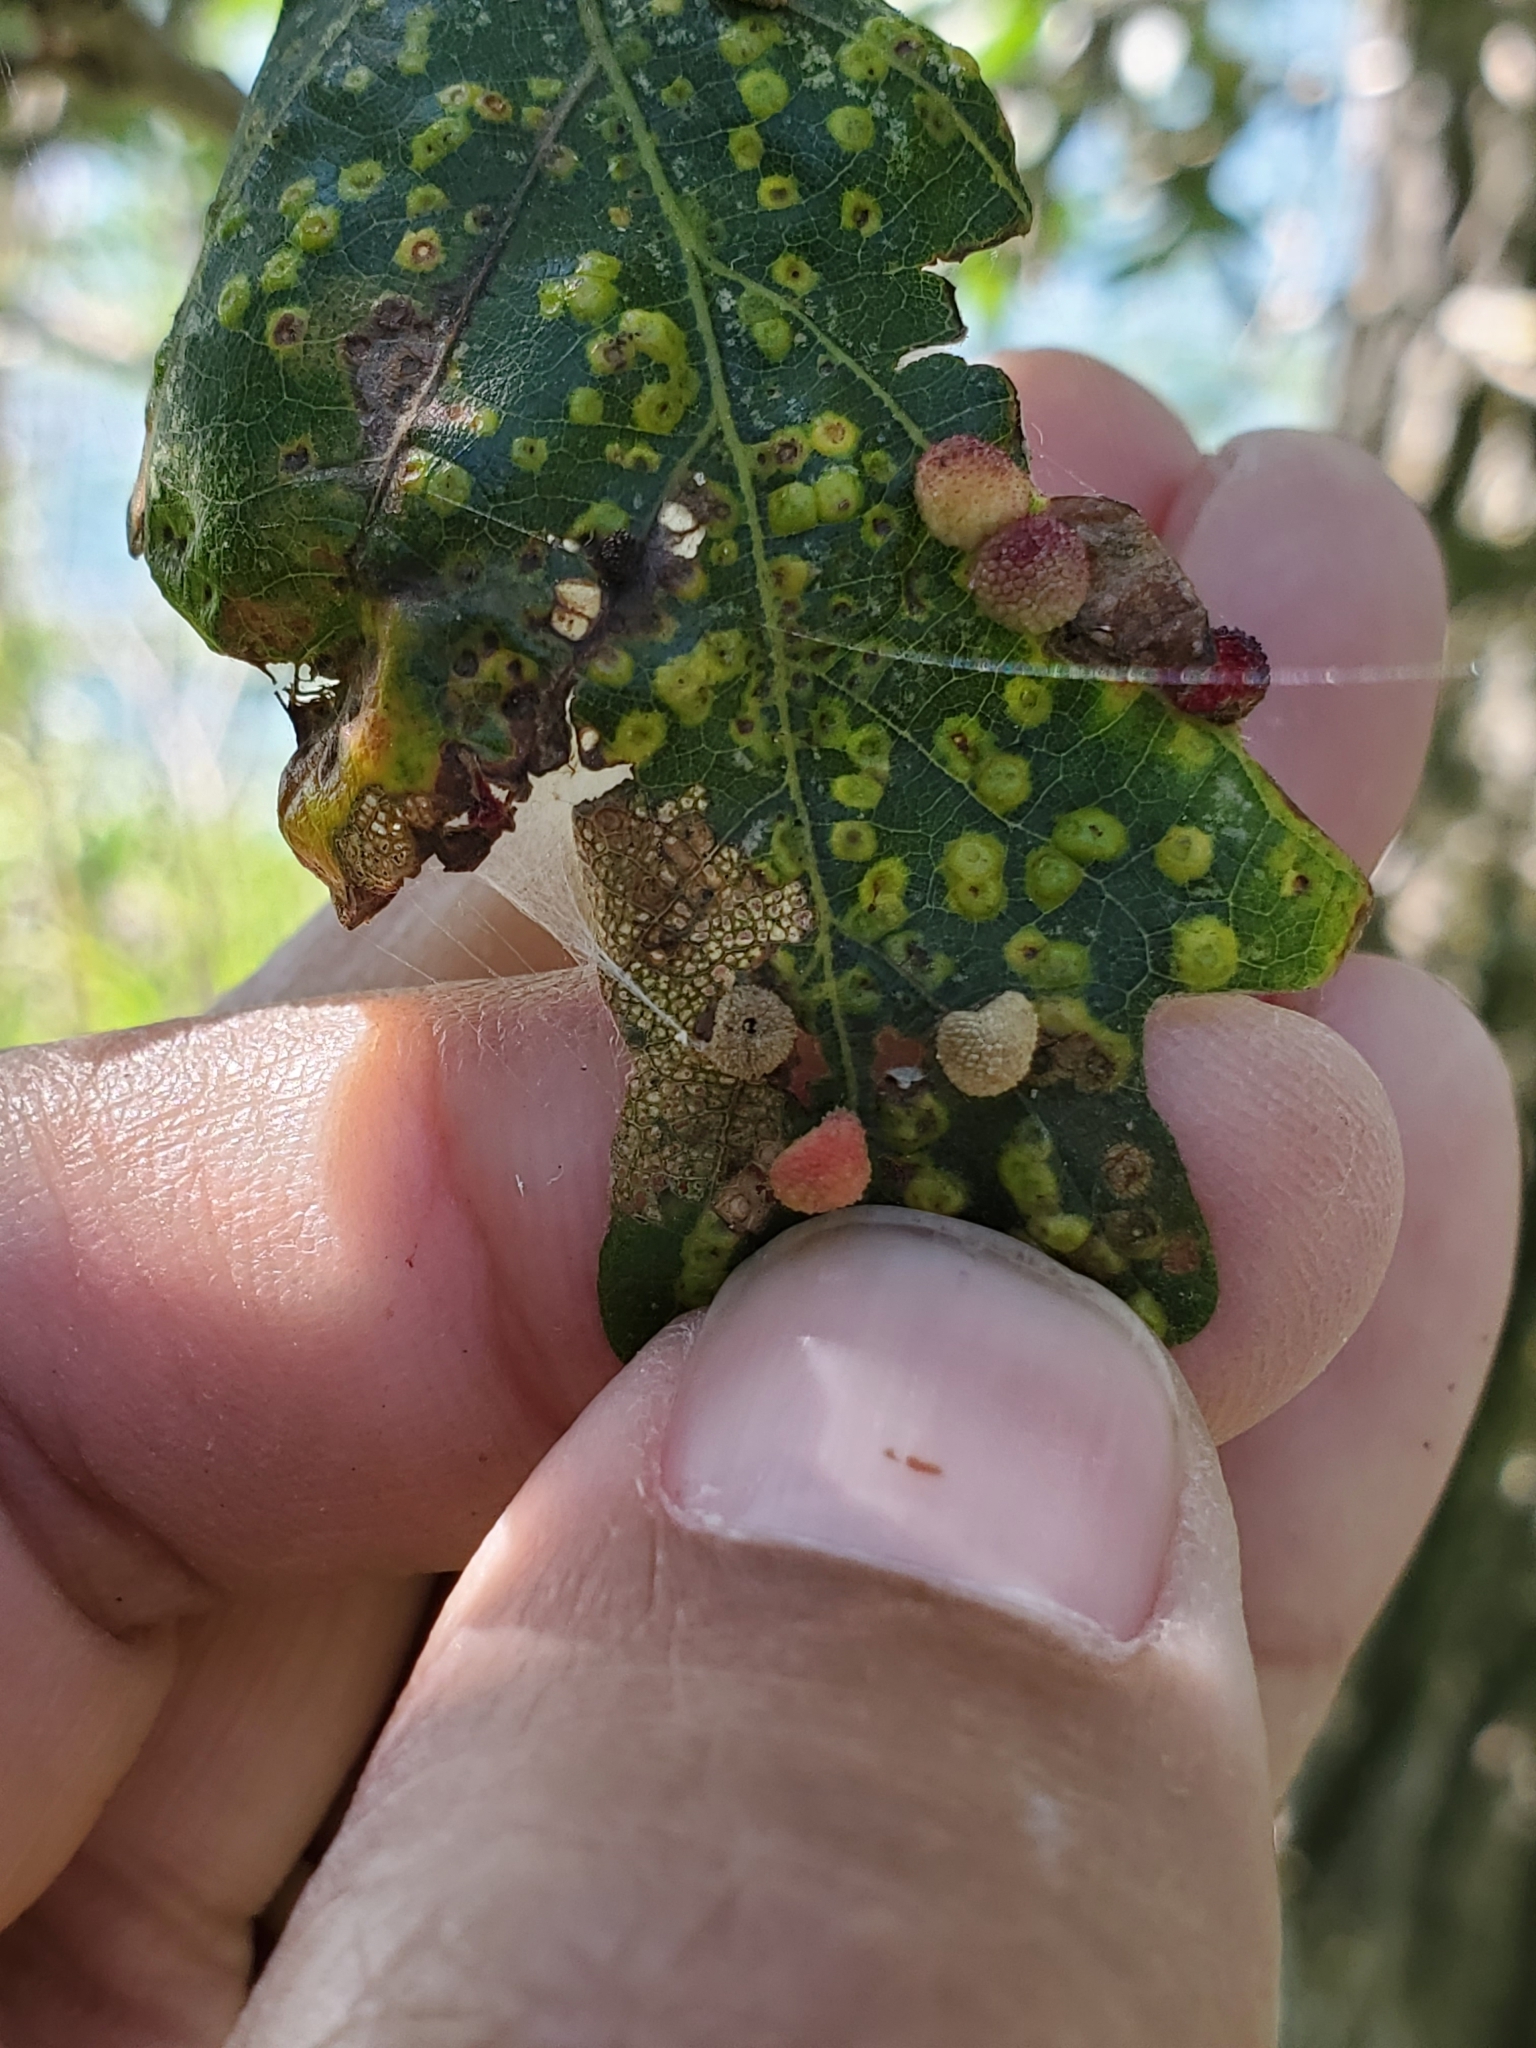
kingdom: Animalia
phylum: Arthropoda
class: Insecta
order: Hymenoptera
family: Cynipidae
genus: Acraspis
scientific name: Acraspis quercushirta
